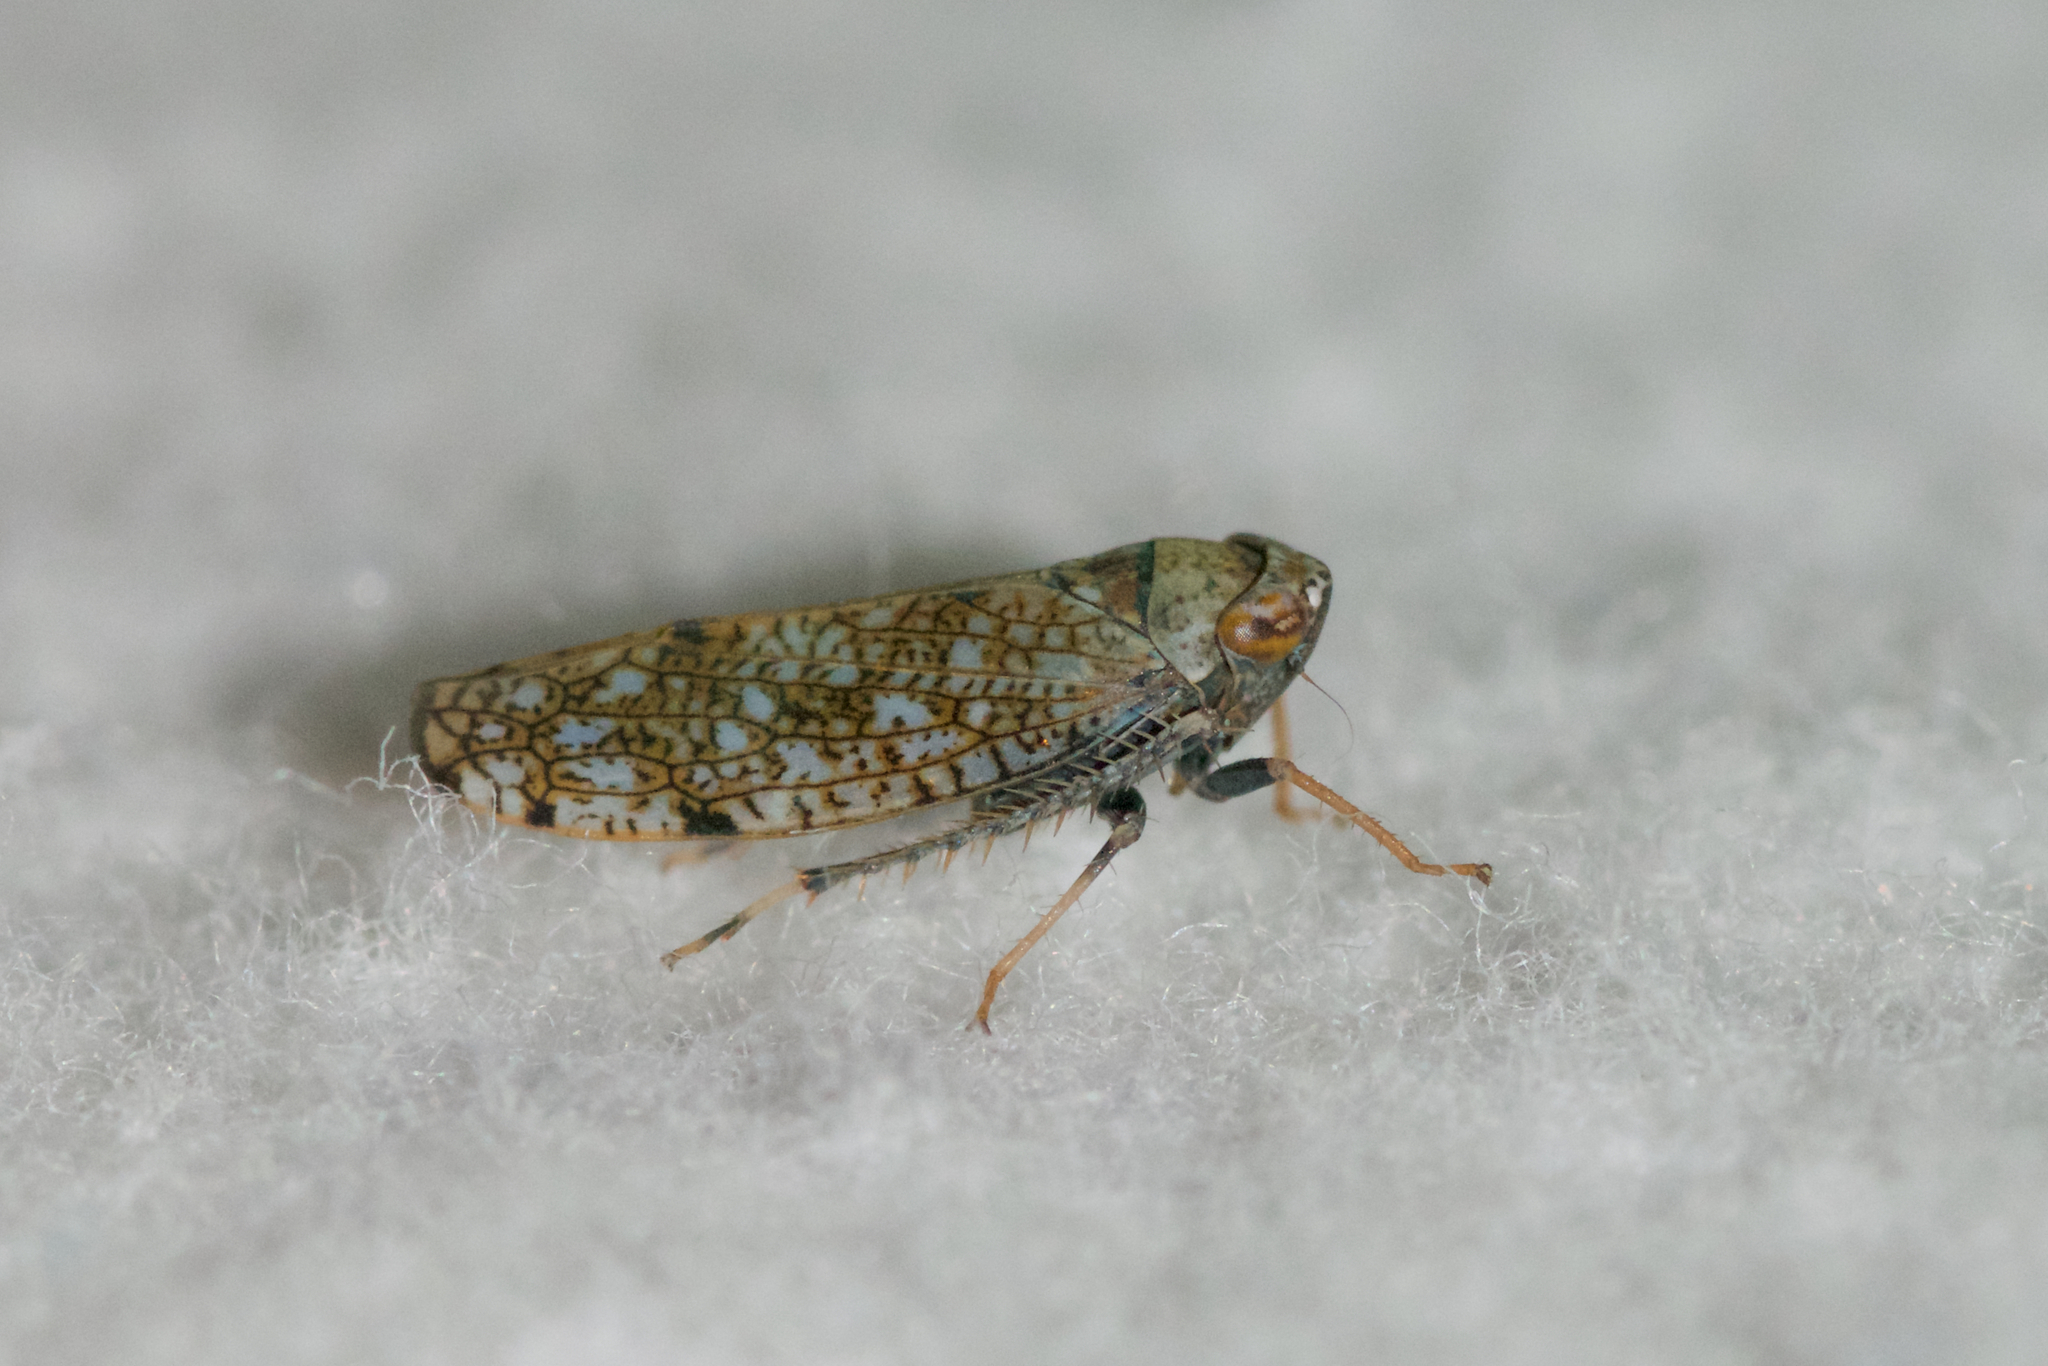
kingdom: Animalia
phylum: Arthropoda
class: Insecta
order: Hemiptera
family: Cicadellidae
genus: Orientus
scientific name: Orientus ishidae
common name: Japanese leafhopper
